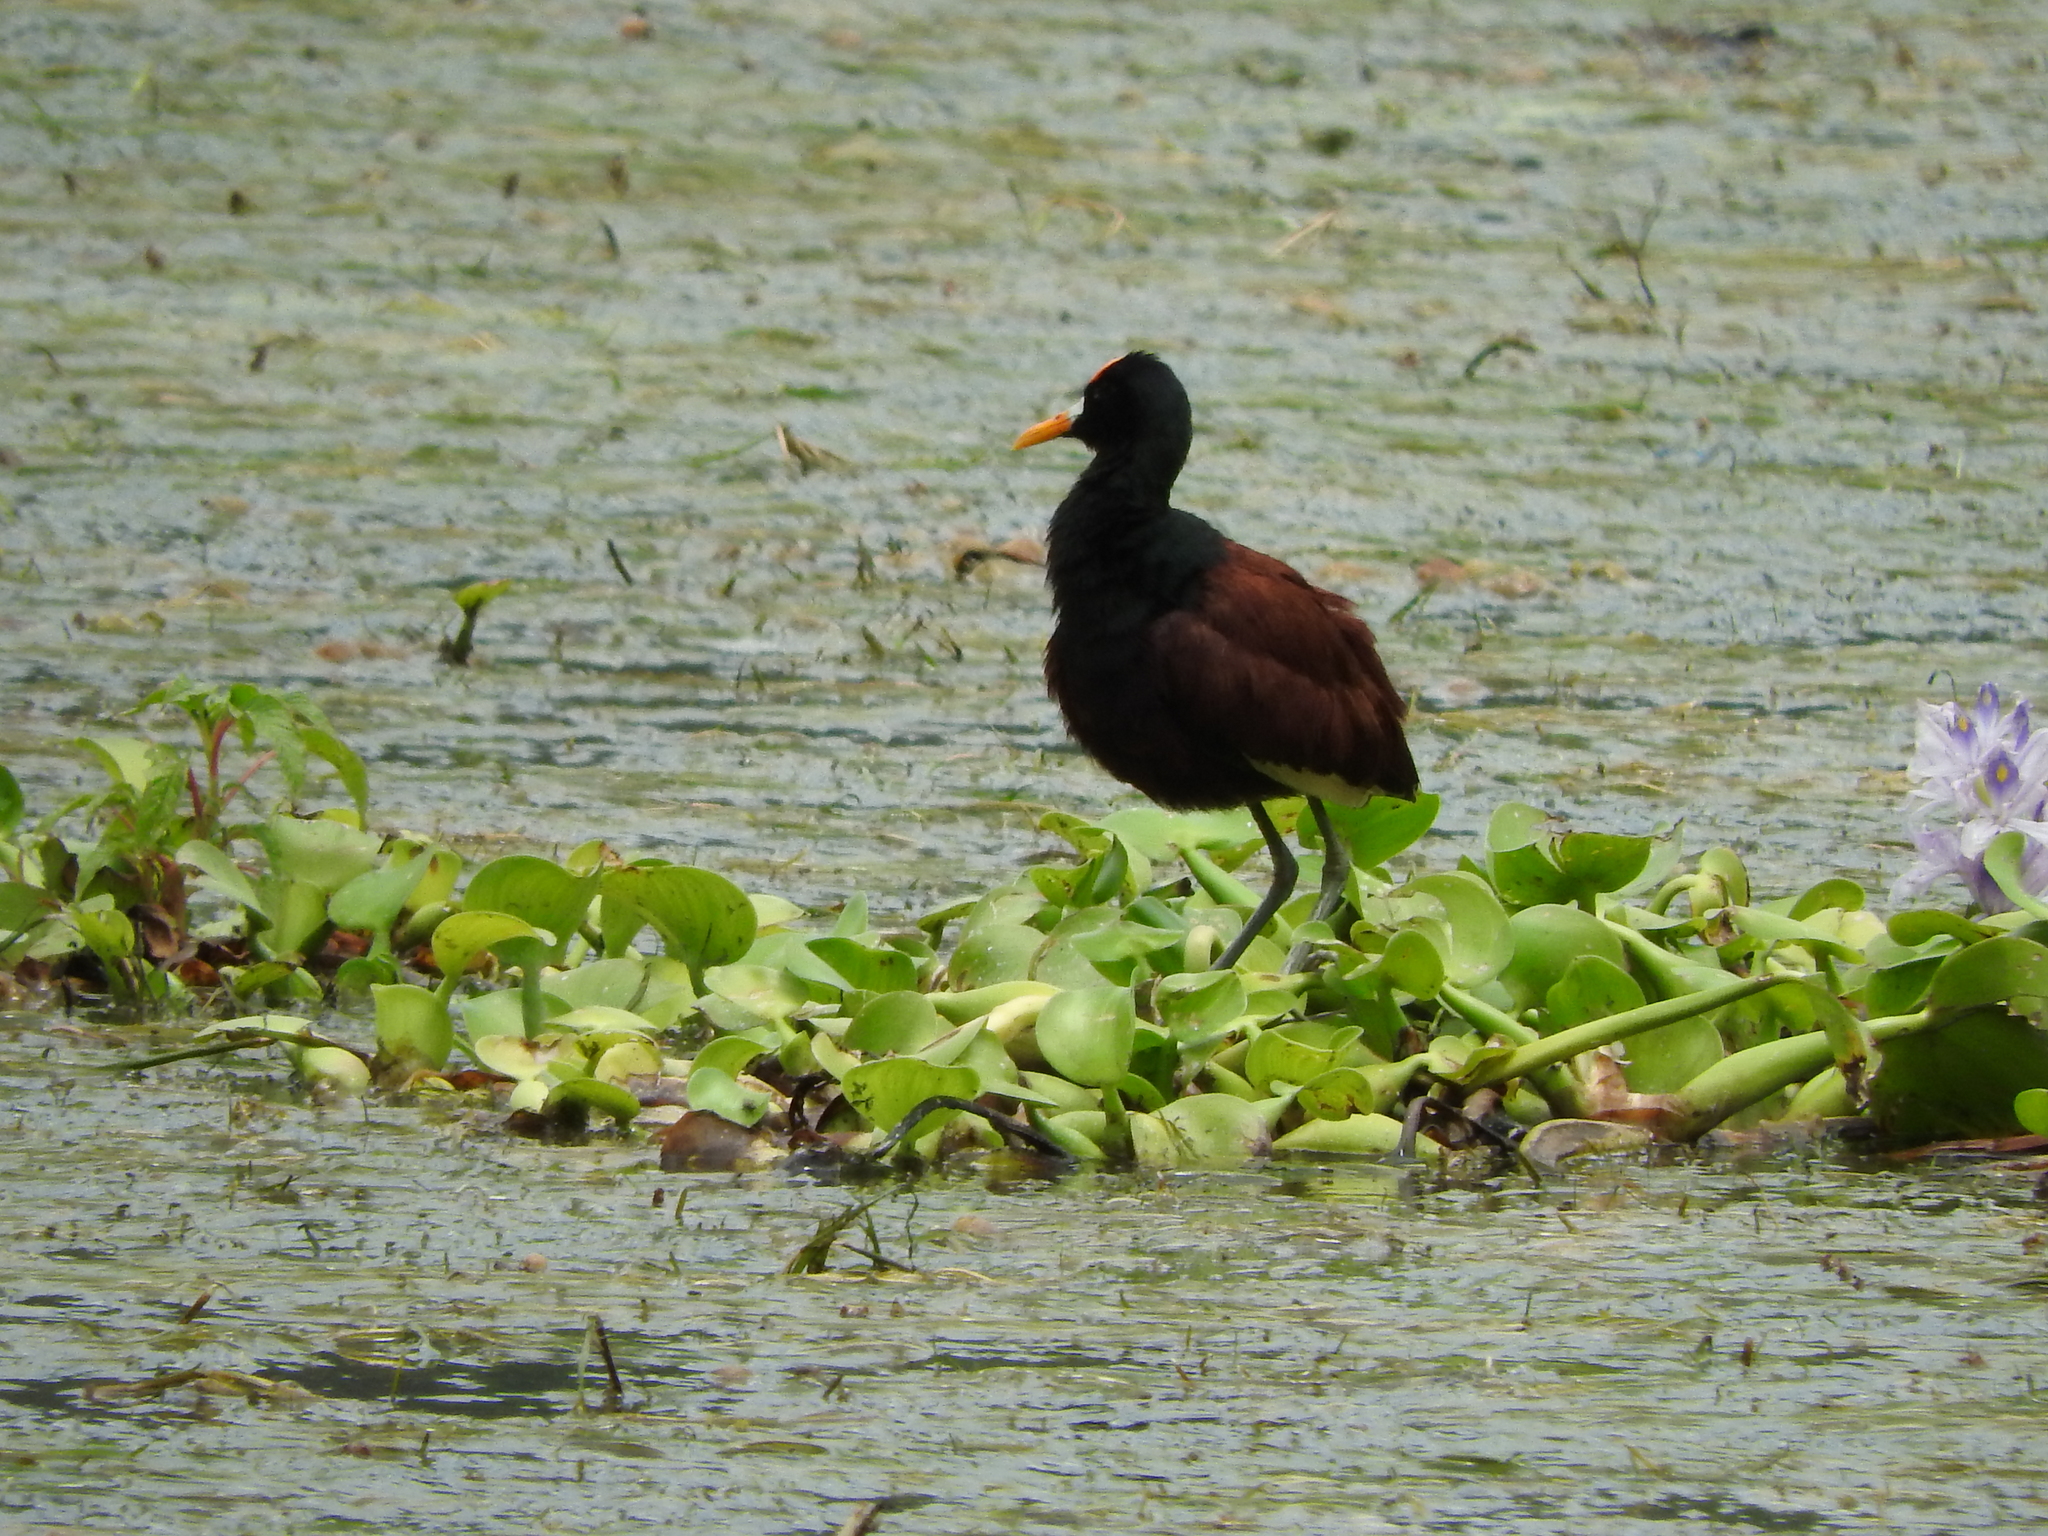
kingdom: Animalia
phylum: Chordata
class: Aves
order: Charadriiformes
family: Jacanidae
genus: Jacana
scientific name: Jacana spinosa
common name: Northern jacana
